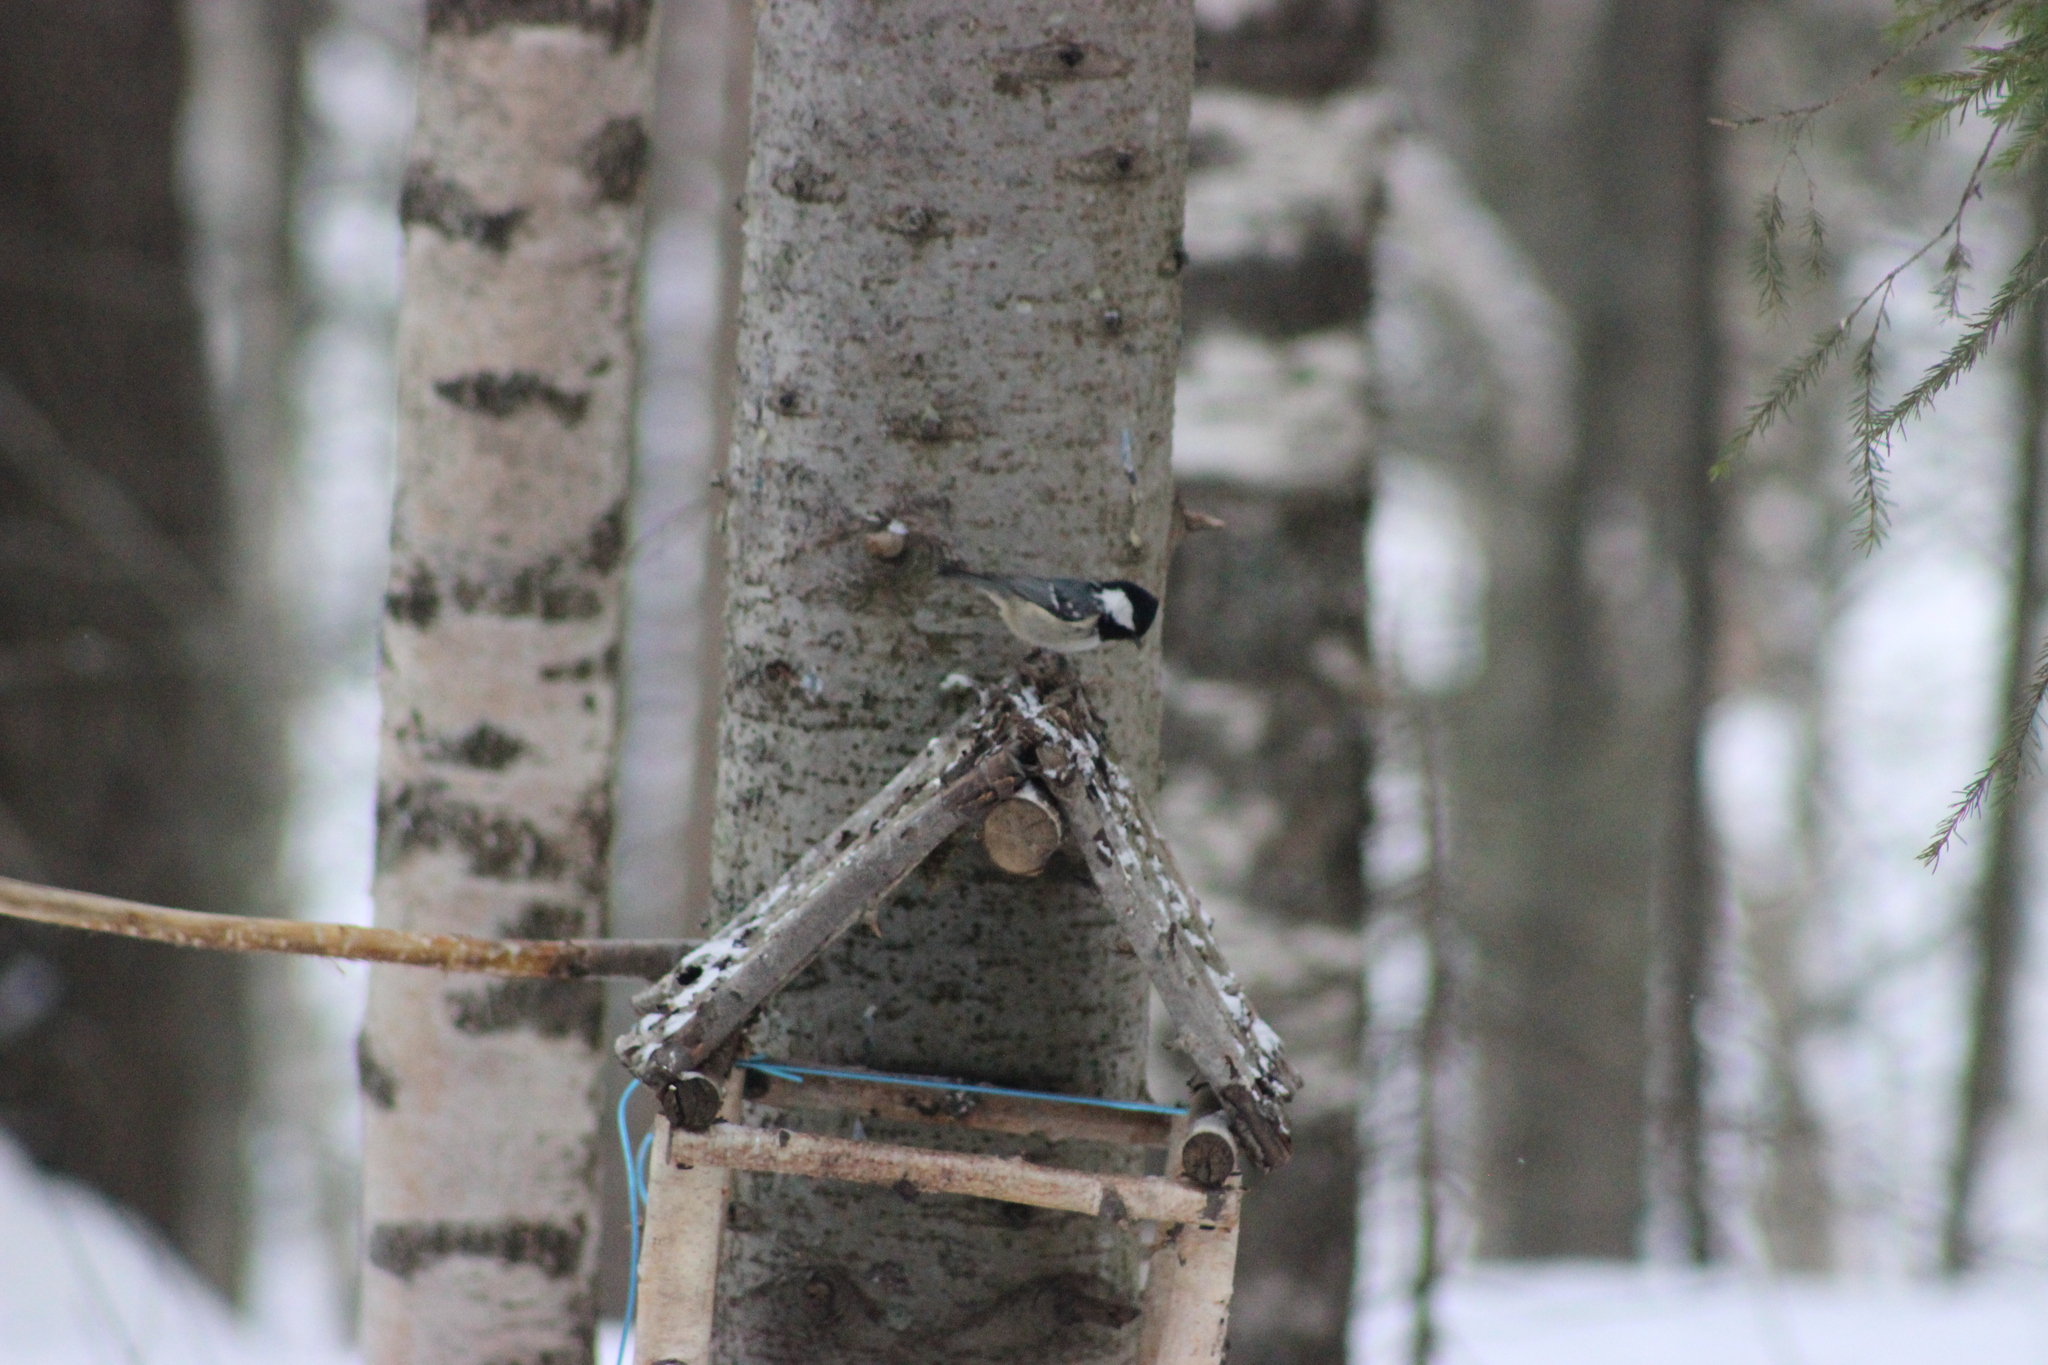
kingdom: Animalia
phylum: Chordata
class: Aves
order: Passeriformes
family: Paridae
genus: Periparus
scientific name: Periparus ater
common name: Coal tit
